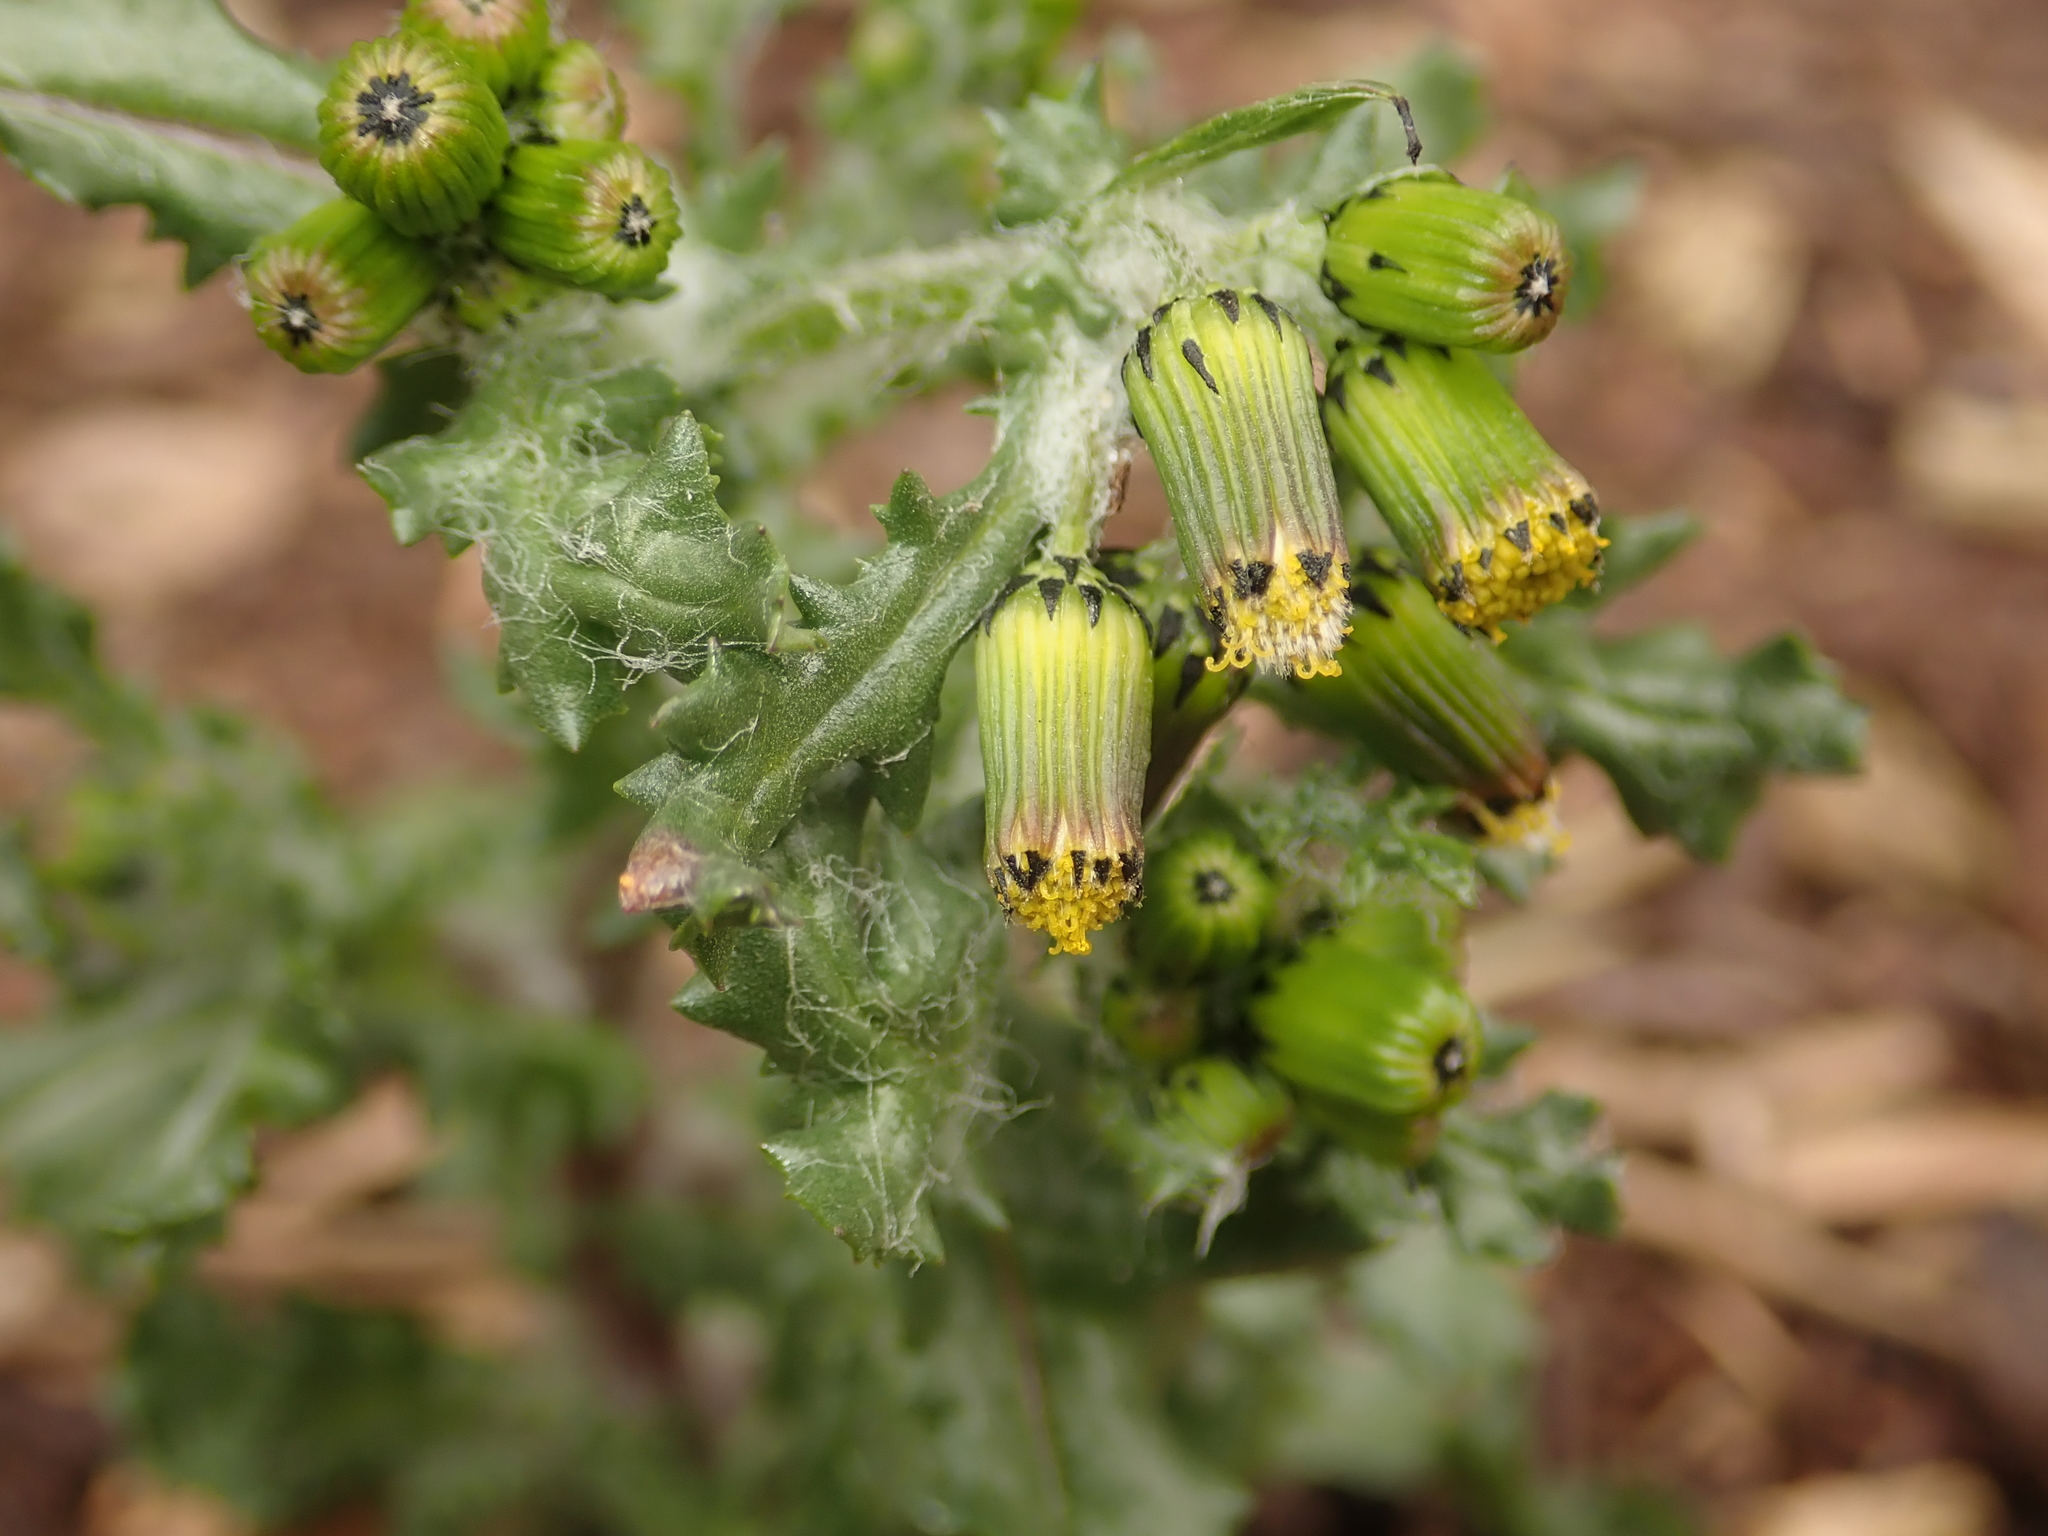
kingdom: Plantae
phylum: Tracheophyta
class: Magnoliopsida
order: Asterales
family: Asteraceae
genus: Senecio
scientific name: Senecio vulgaris
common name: Old-man-in-the-spring
